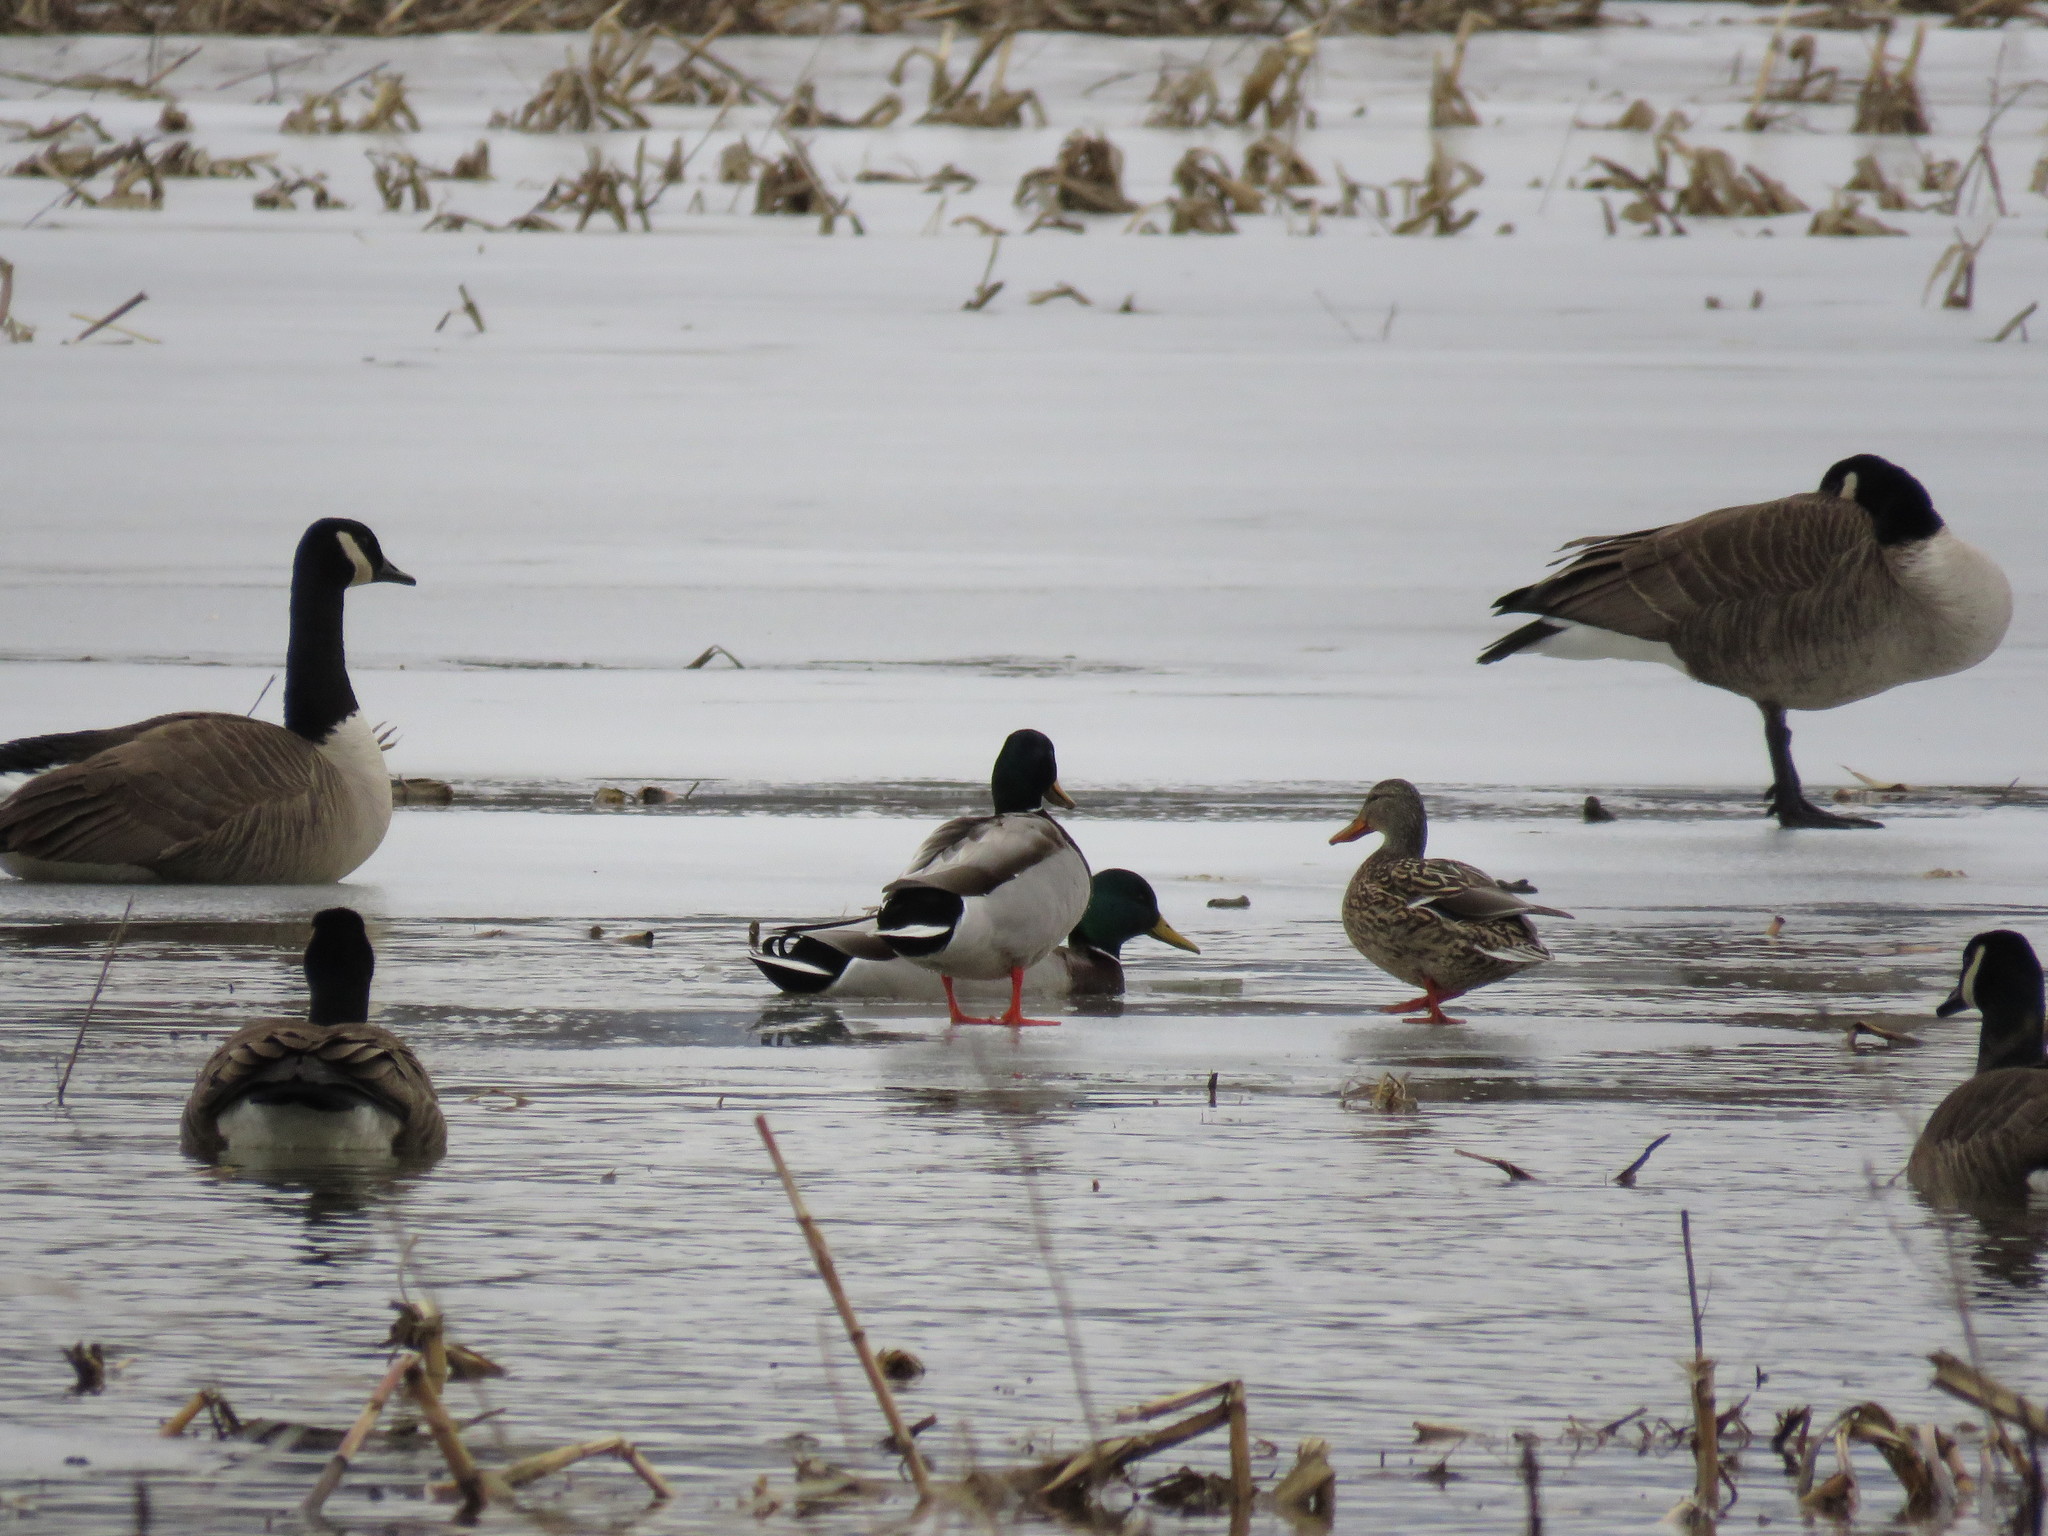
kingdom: Animalia
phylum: Chordata
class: Aves
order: Anseriformes
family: Anatidae
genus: Anas
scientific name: Anas platyrhynchos
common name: Mallard
